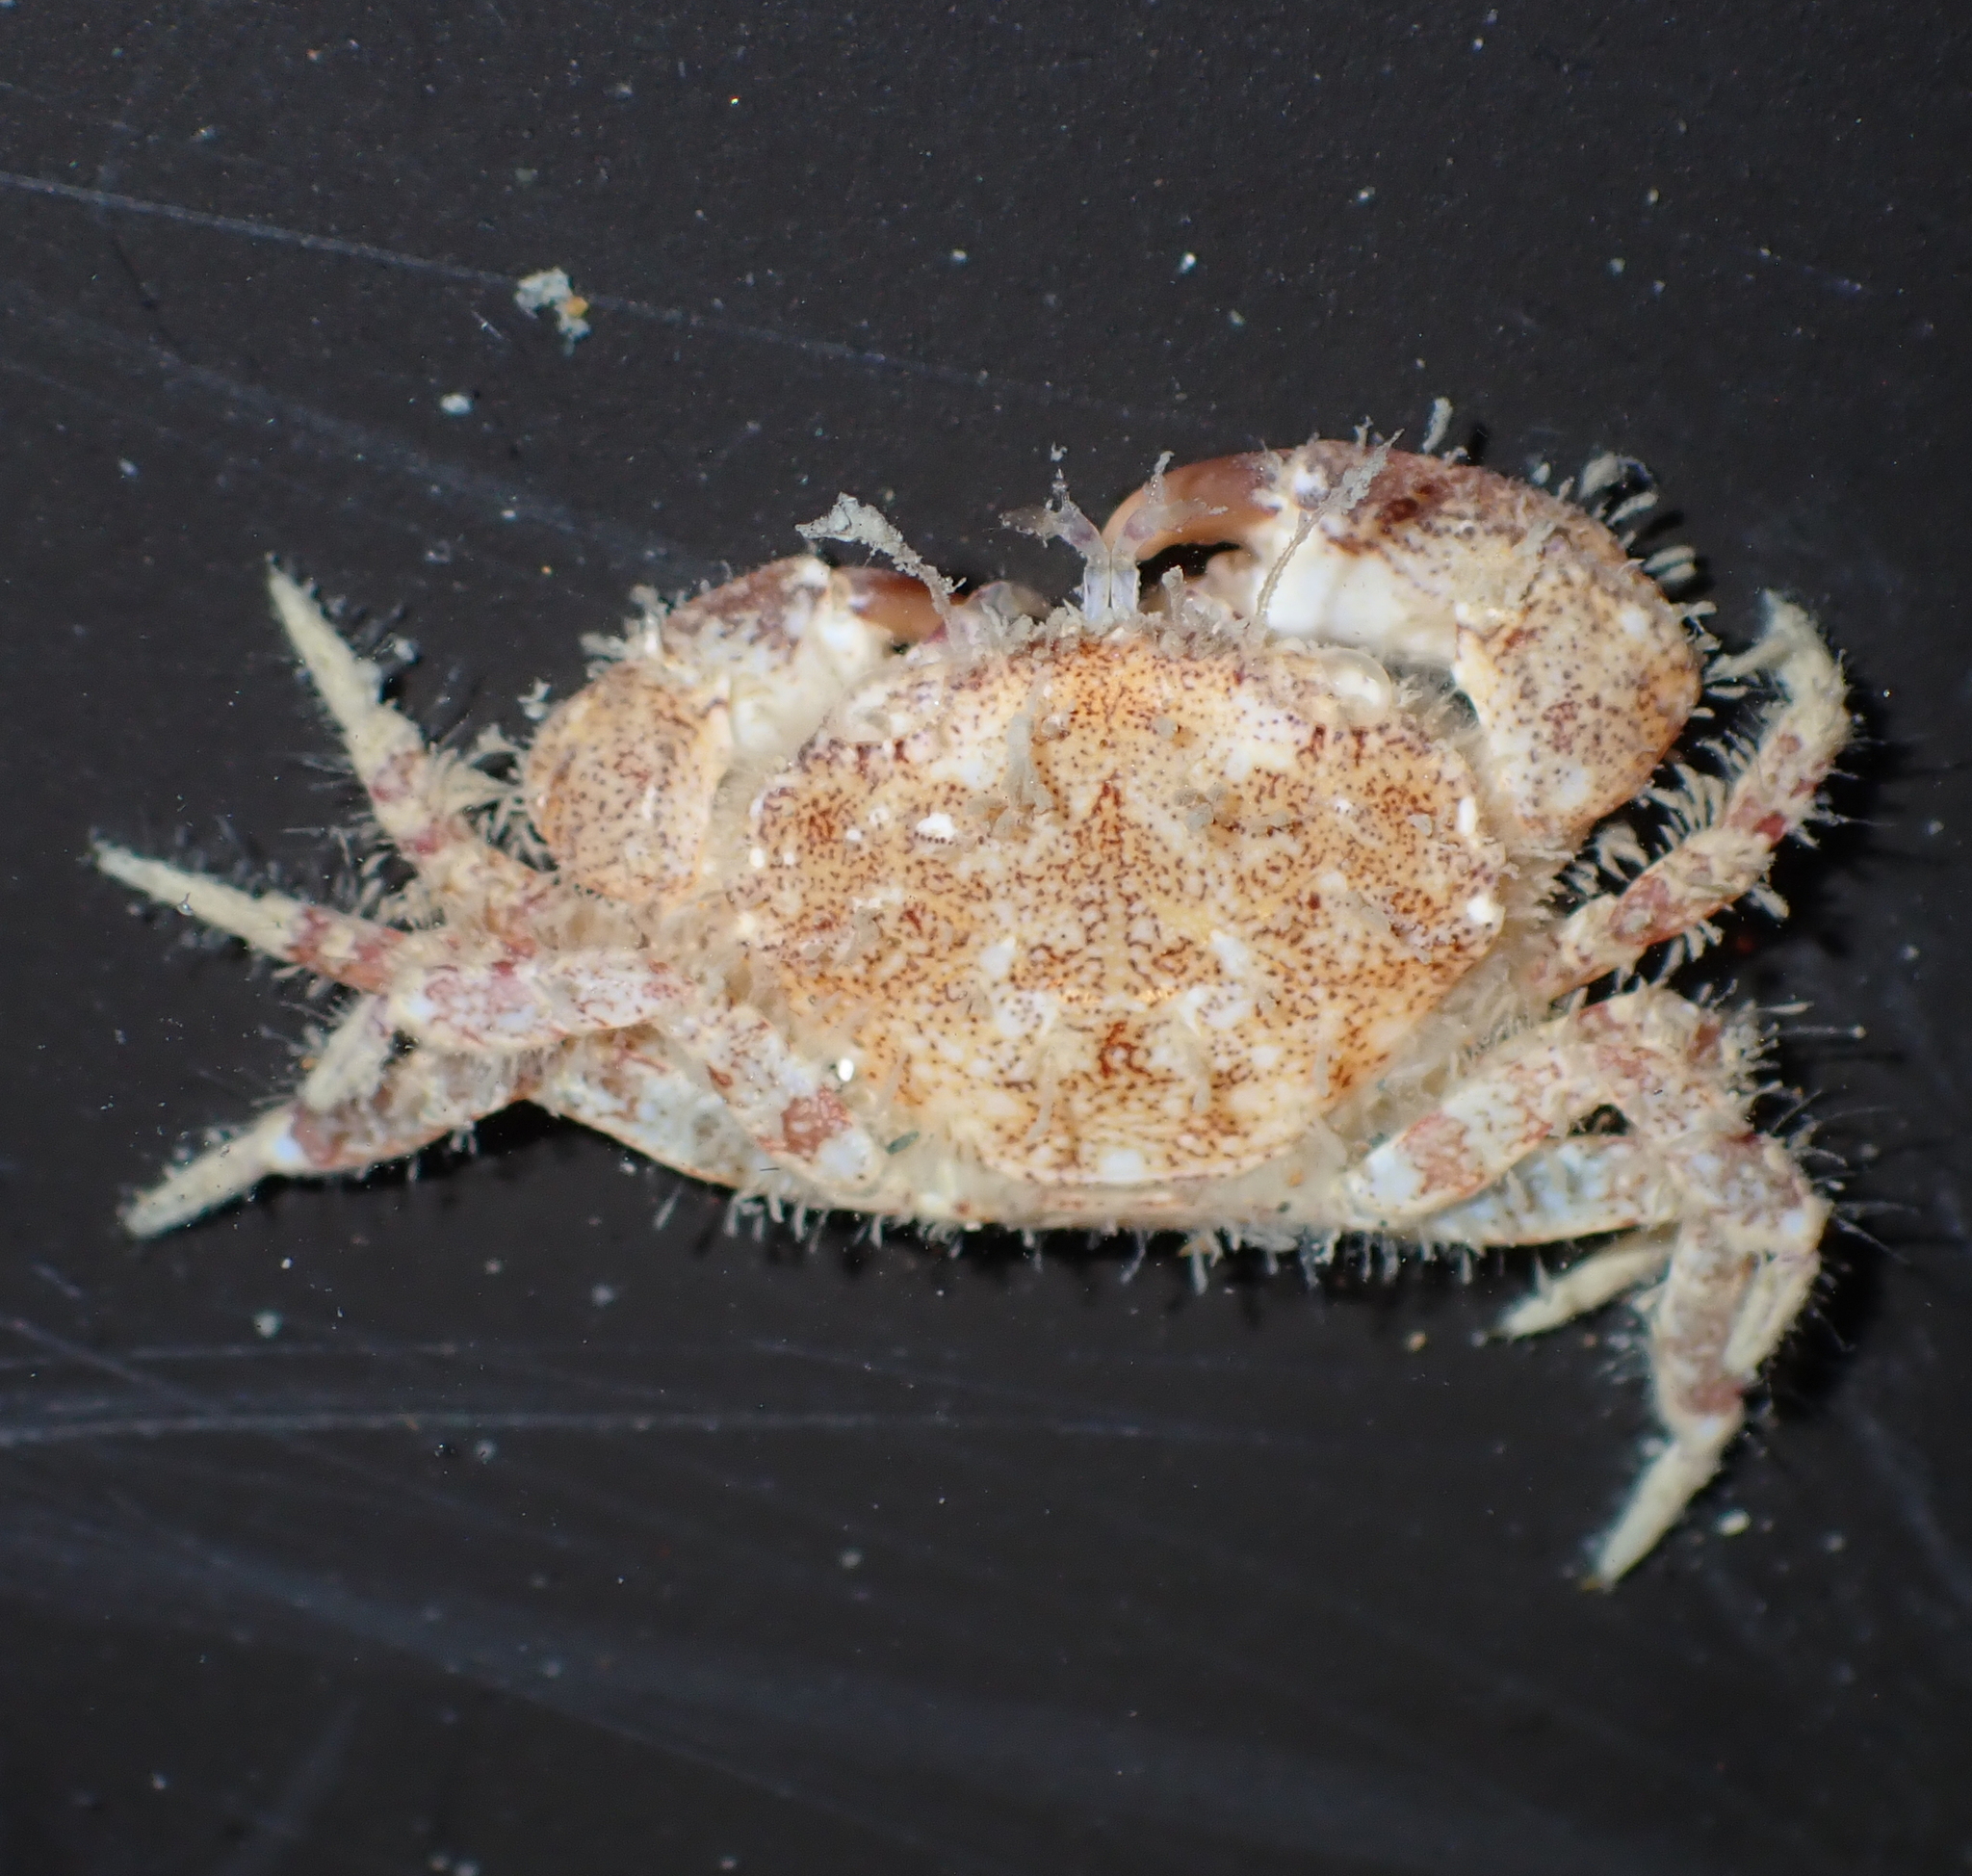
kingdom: Animalia
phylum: Arthropoda
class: Malacostraca
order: Decapoda
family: Pilumnidae
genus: Pilumnopeus
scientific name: Pilumnopeus serratifrons
